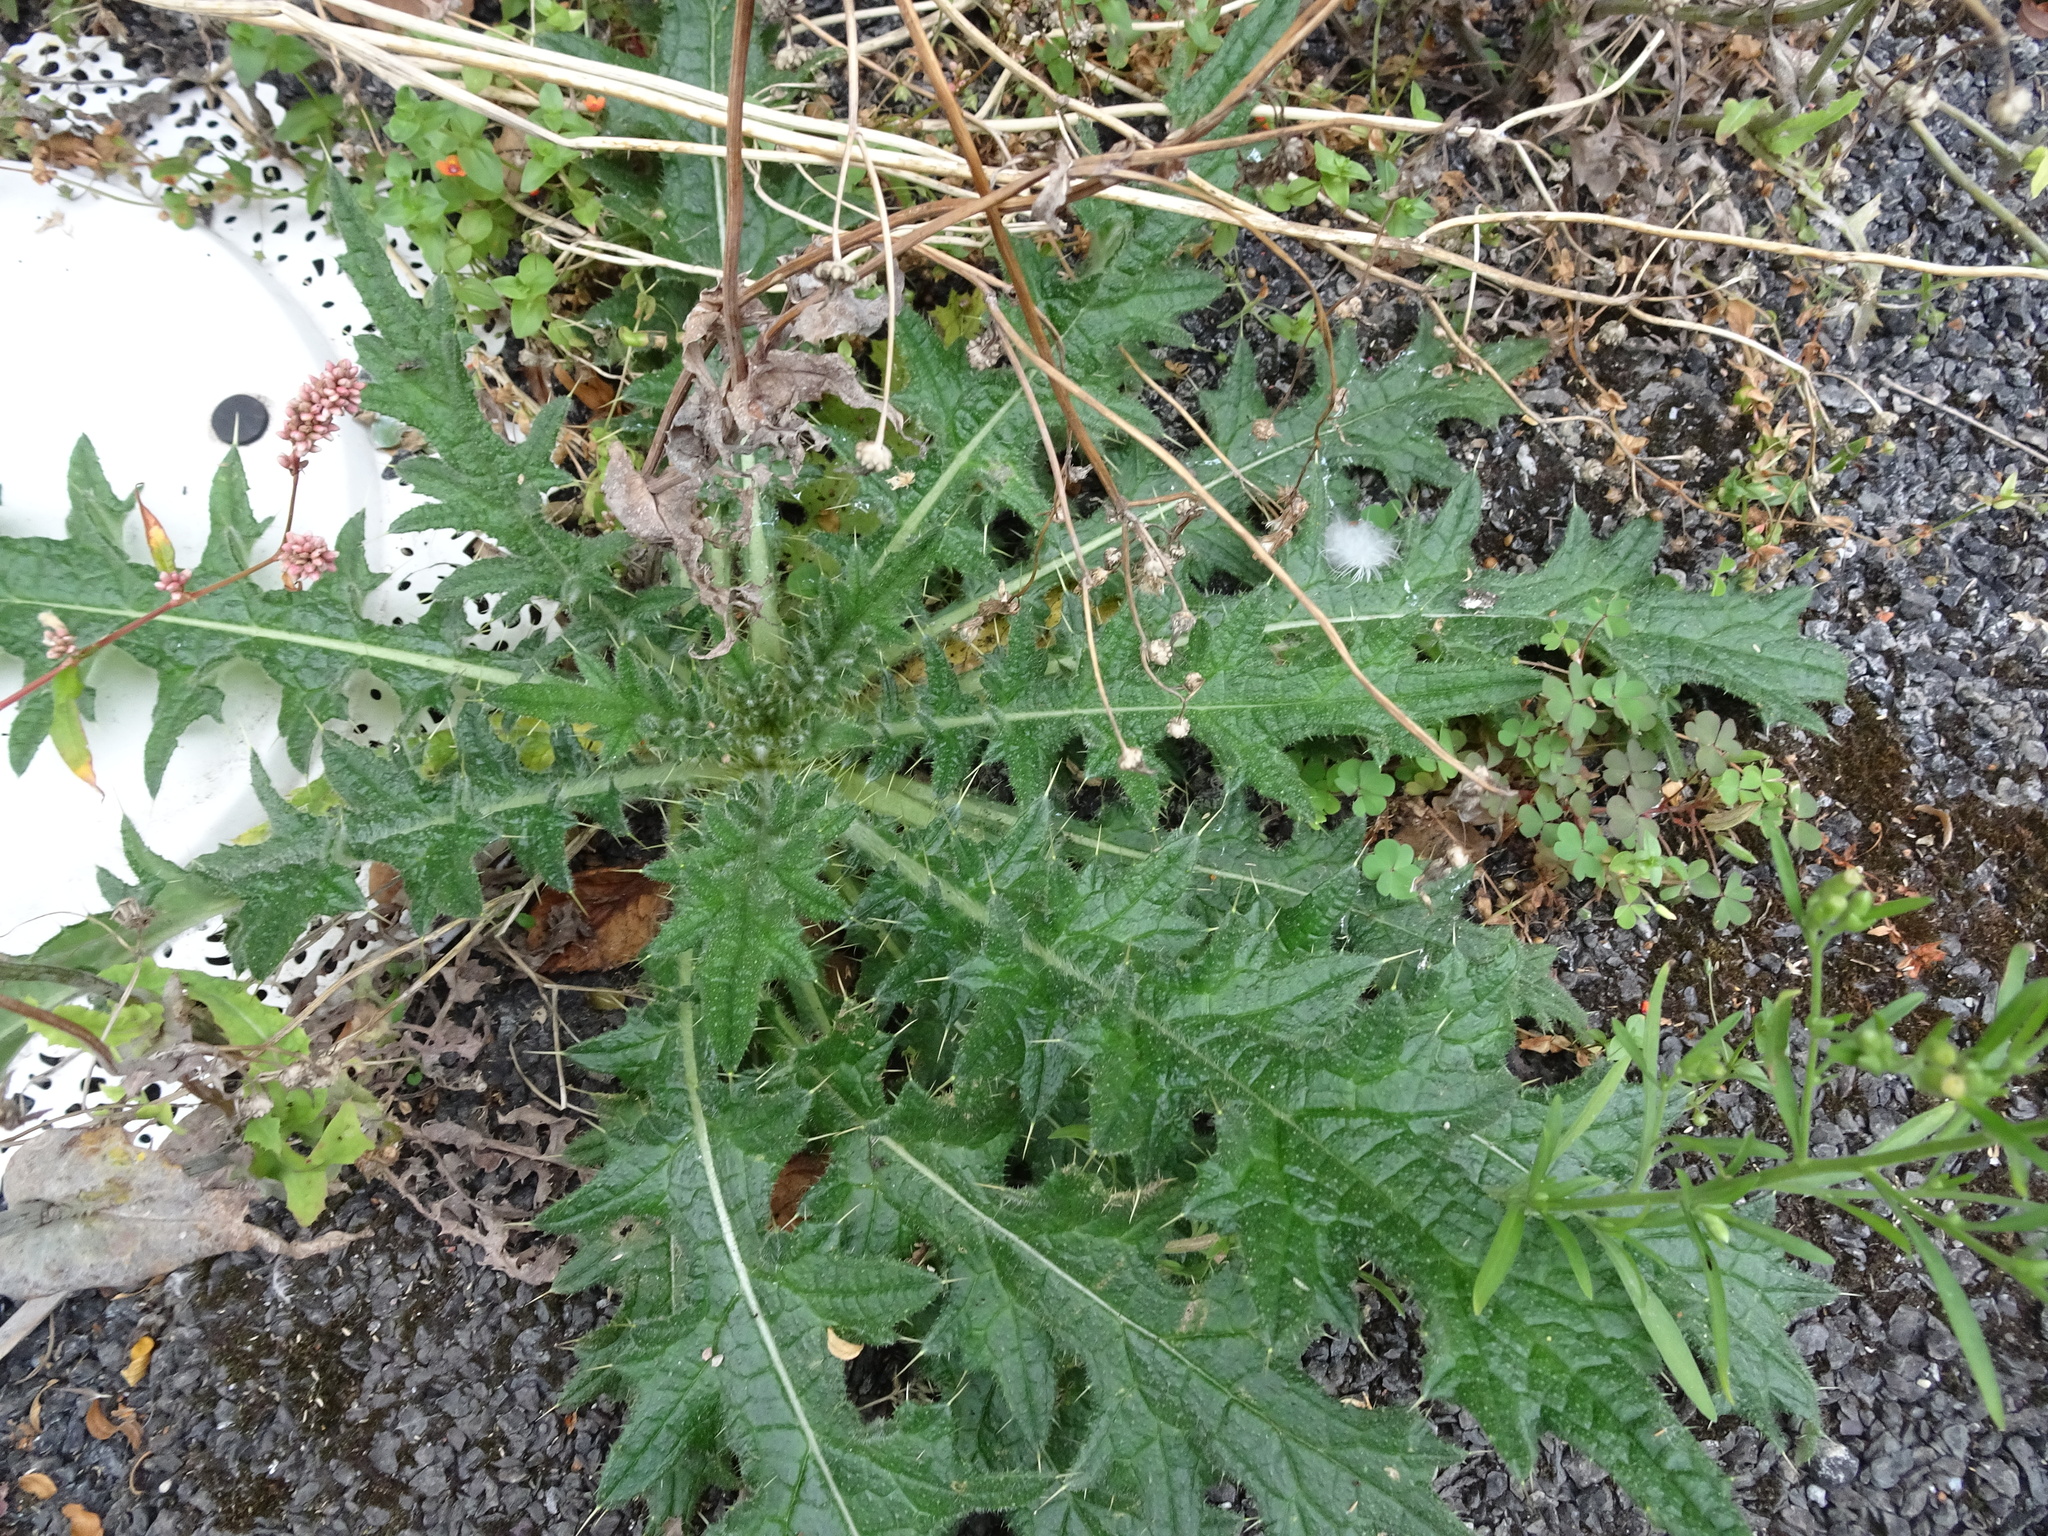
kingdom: Plantae
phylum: Tracheophyta
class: Magnoliopsida
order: Asterales
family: Asteraceae
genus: Cirsium
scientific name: Cirsium vulgare
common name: Bull thistle
